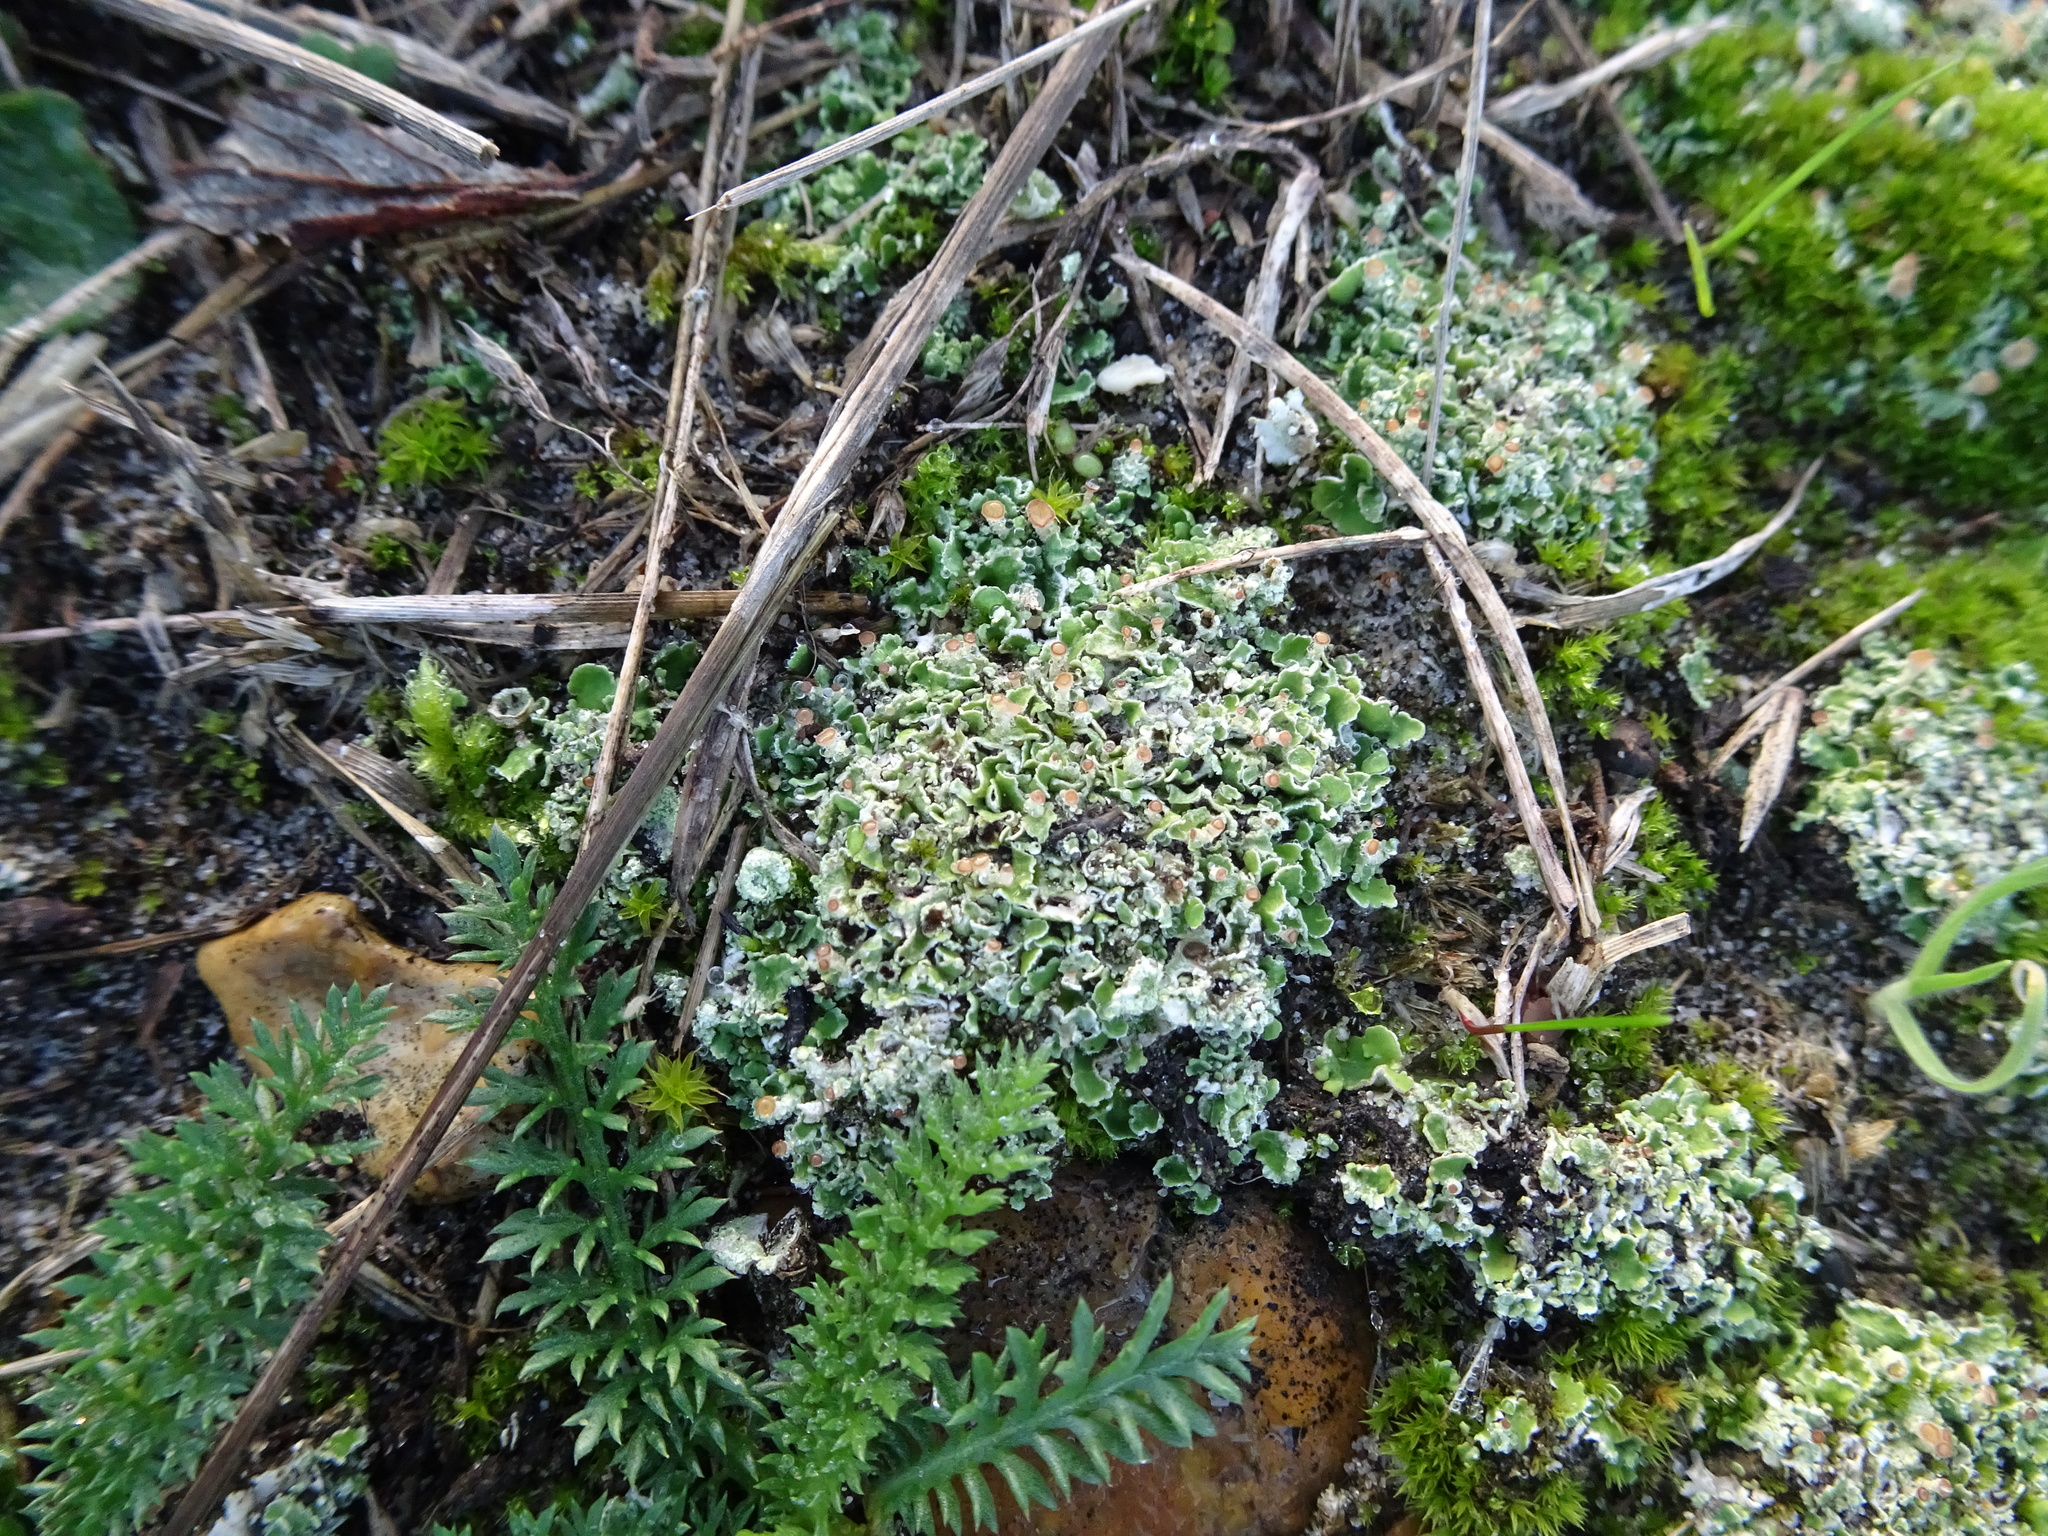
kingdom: Fungi
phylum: Ascomycota
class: Lecanoromycetes
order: Lecanorales
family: Cladoniaceae
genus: Cladonia
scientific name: Cladonia
